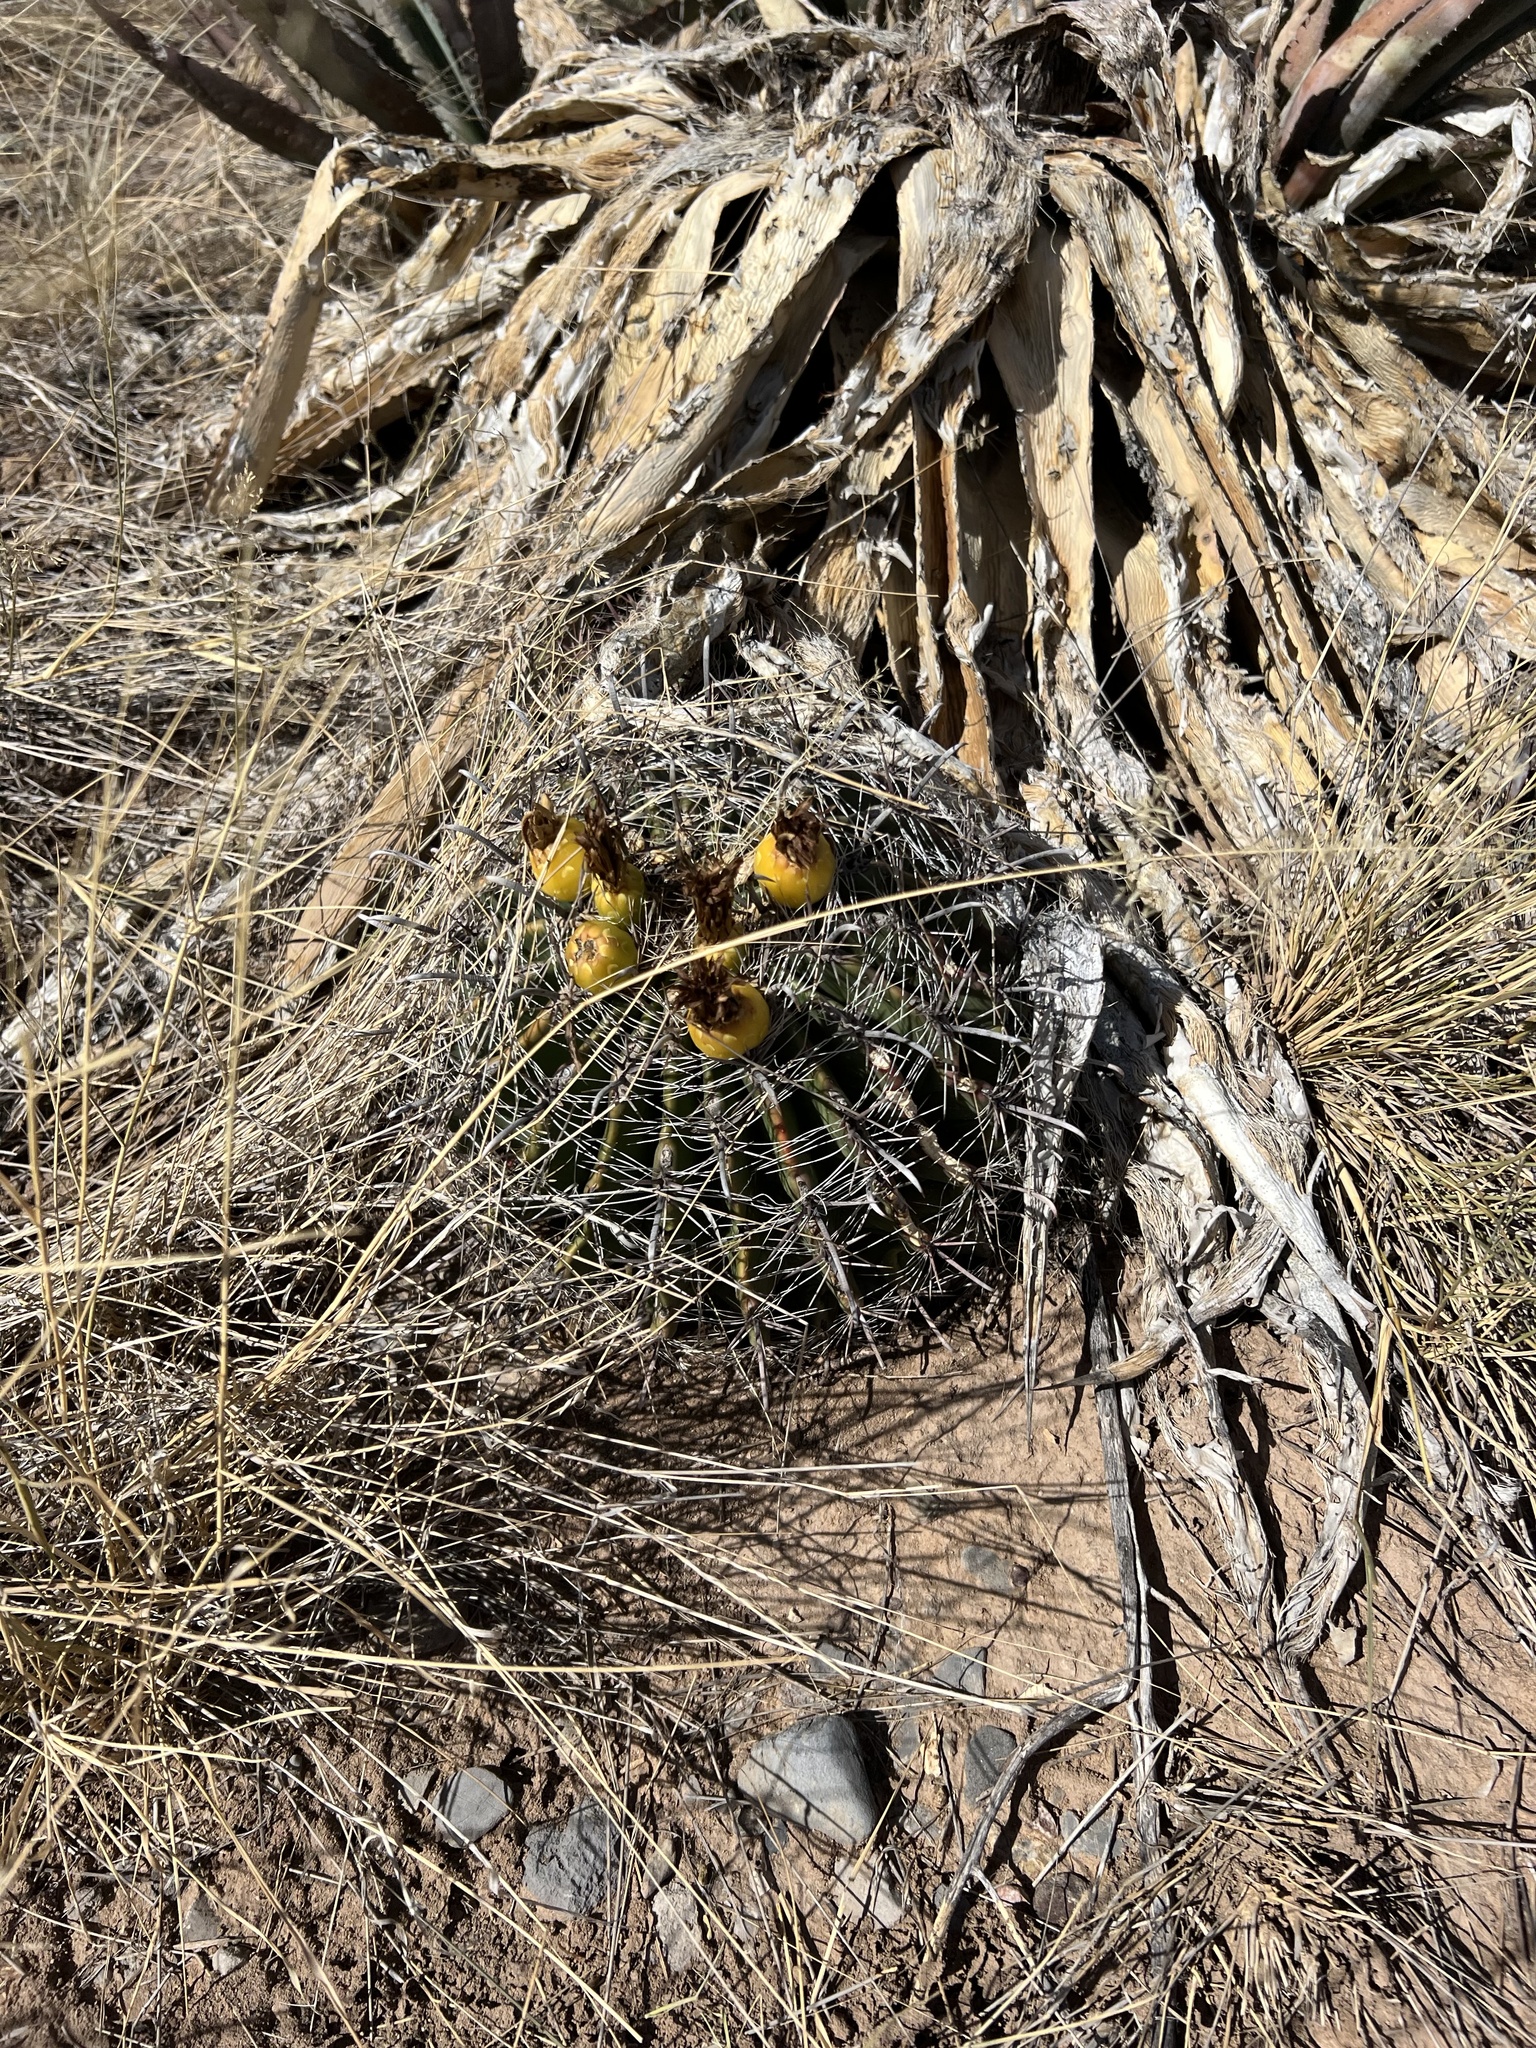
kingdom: Plantae
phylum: Tracheophyta
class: Magnoliopsida
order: Caryophyllales
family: Cactaceae
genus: Ferocactus
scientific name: Ferocactus wislizeni
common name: Candy barrel cactus
